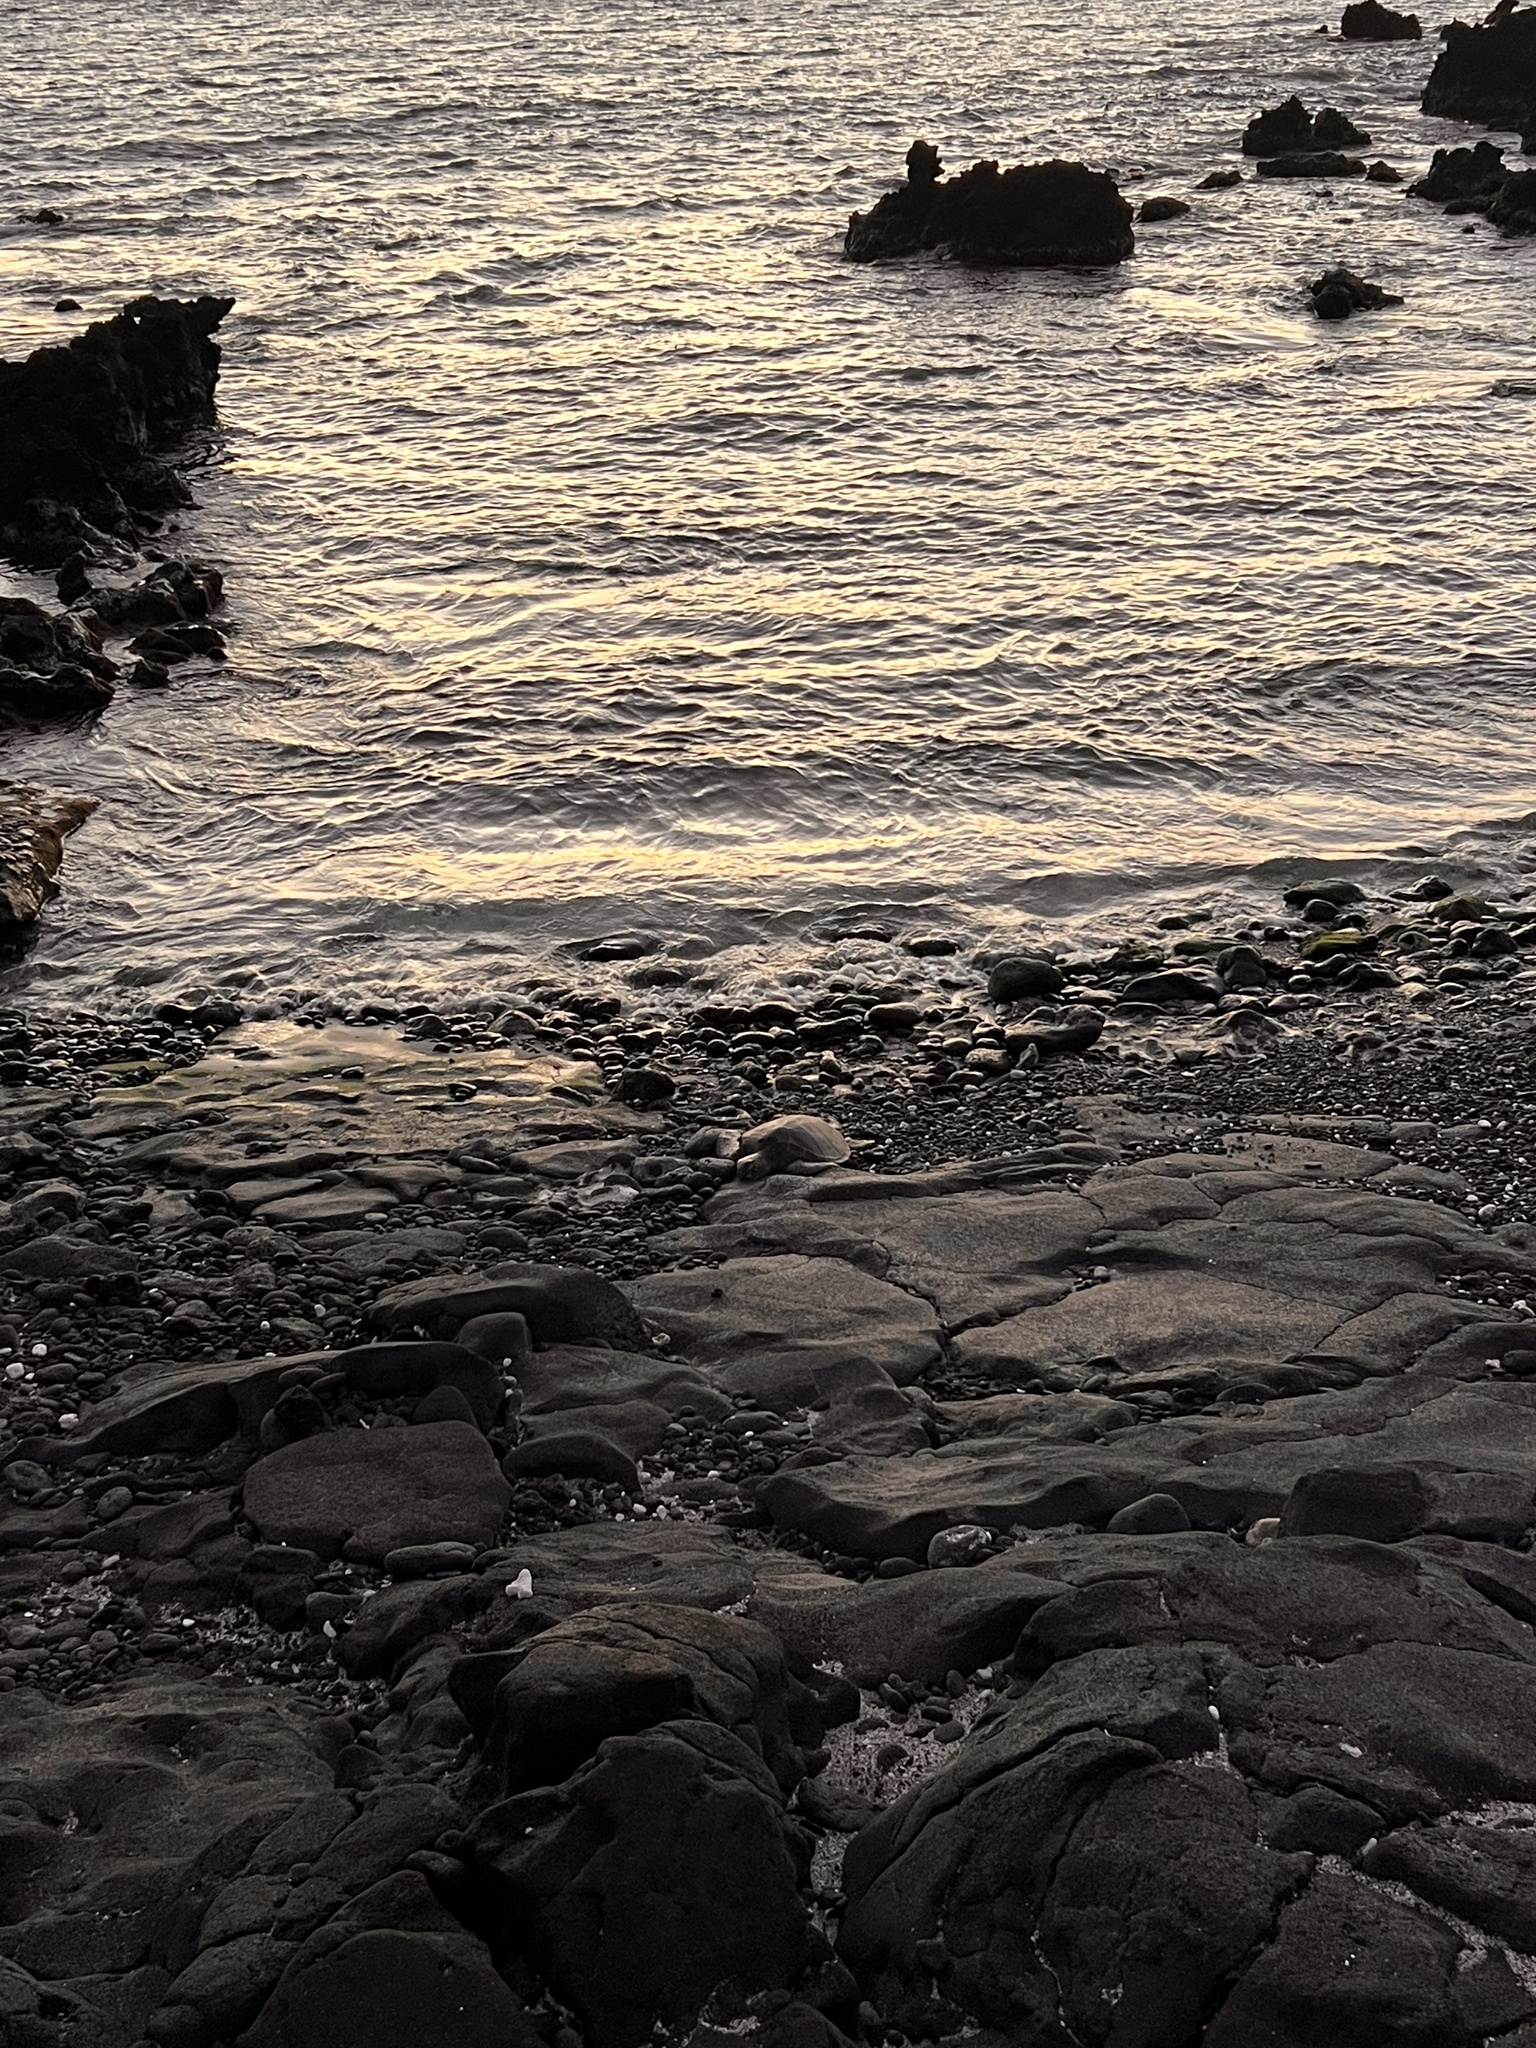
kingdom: Animalia
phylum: Chordata
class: Testudines
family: Cheloniidae
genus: Chelonia
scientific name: Chelonia mydas
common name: Green turtle
